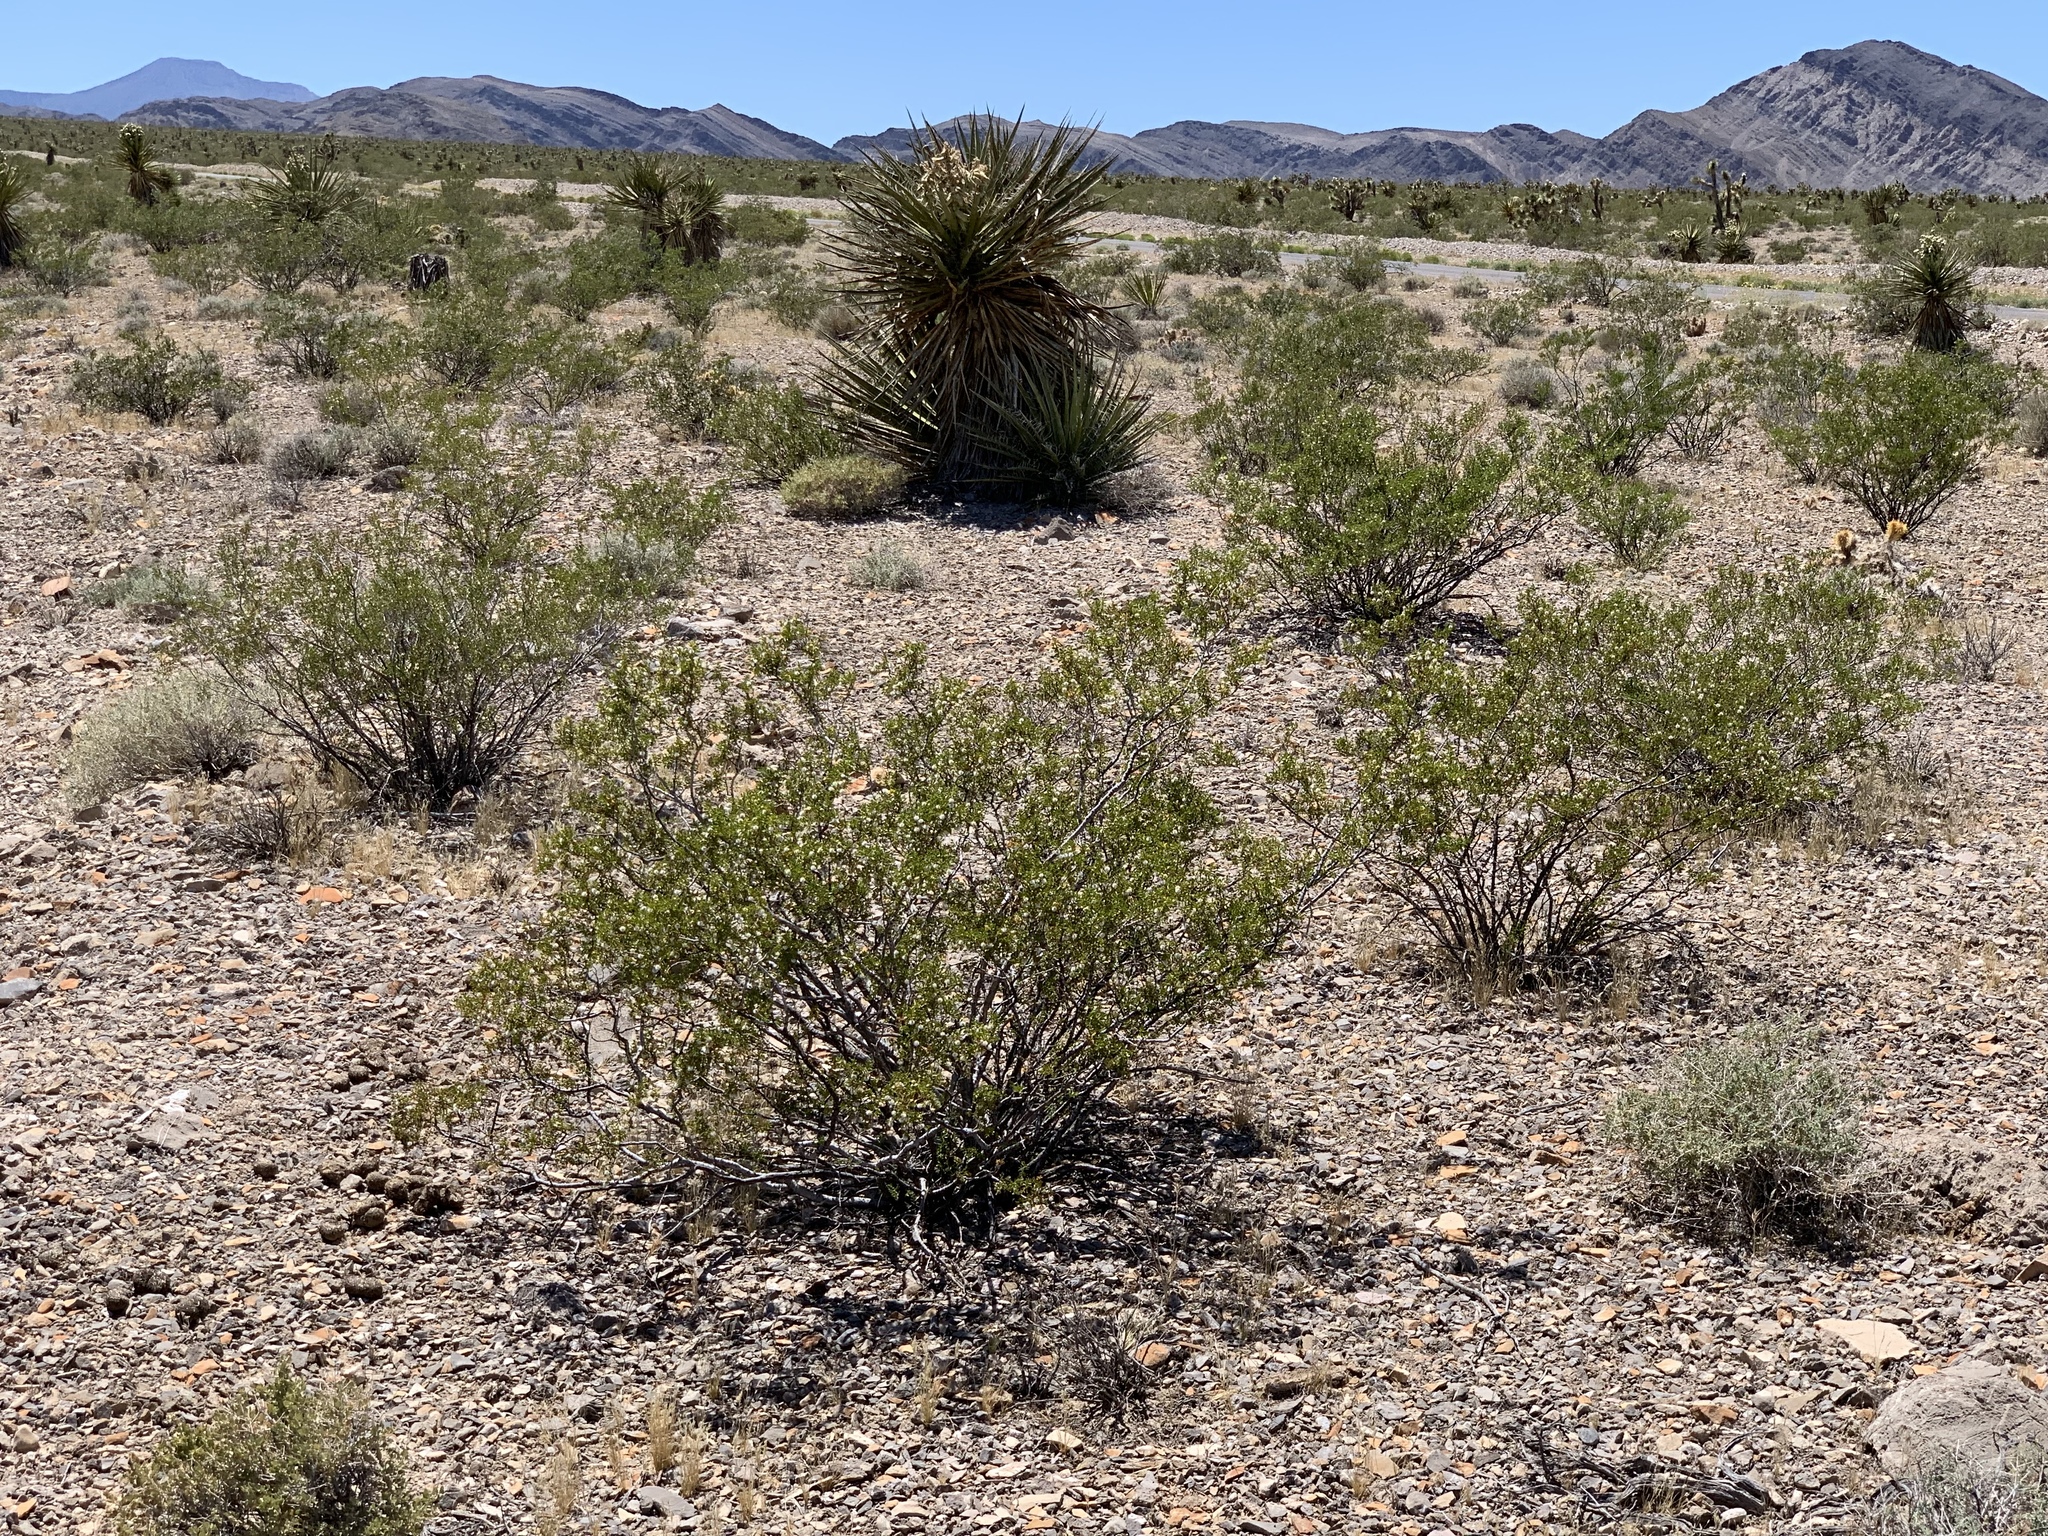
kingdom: Plantae
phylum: Tracheophyta
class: Magnoliopsida
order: Zygophyllales
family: Zygophyllaceae
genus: Larrea
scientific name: Larrea tridentata
